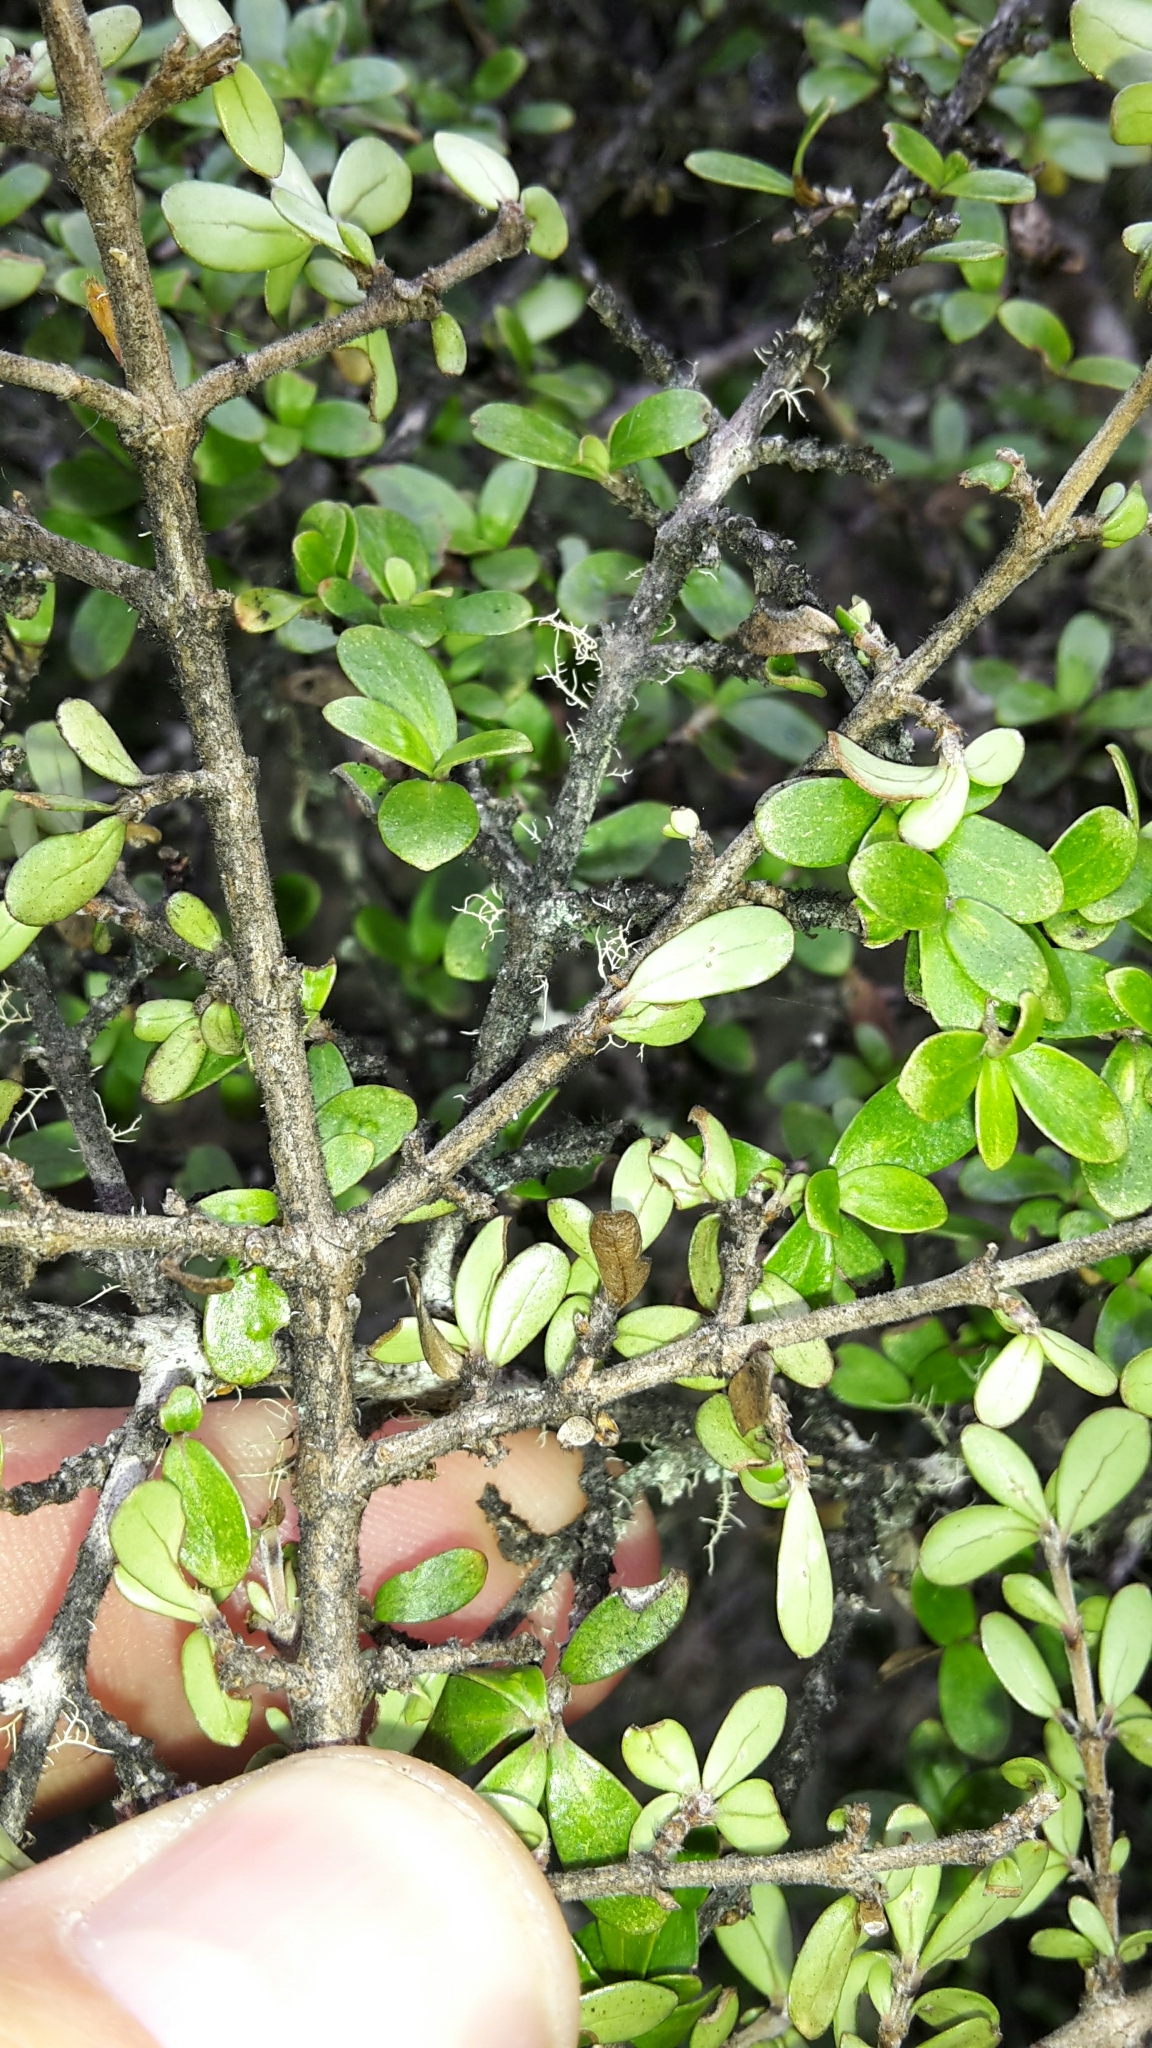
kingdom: Plantae
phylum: Tracheophyta
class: Magnoliopsida
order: Gentianales
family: Rubiaceae
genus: Coprosma
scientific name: Coprosma dumosa
